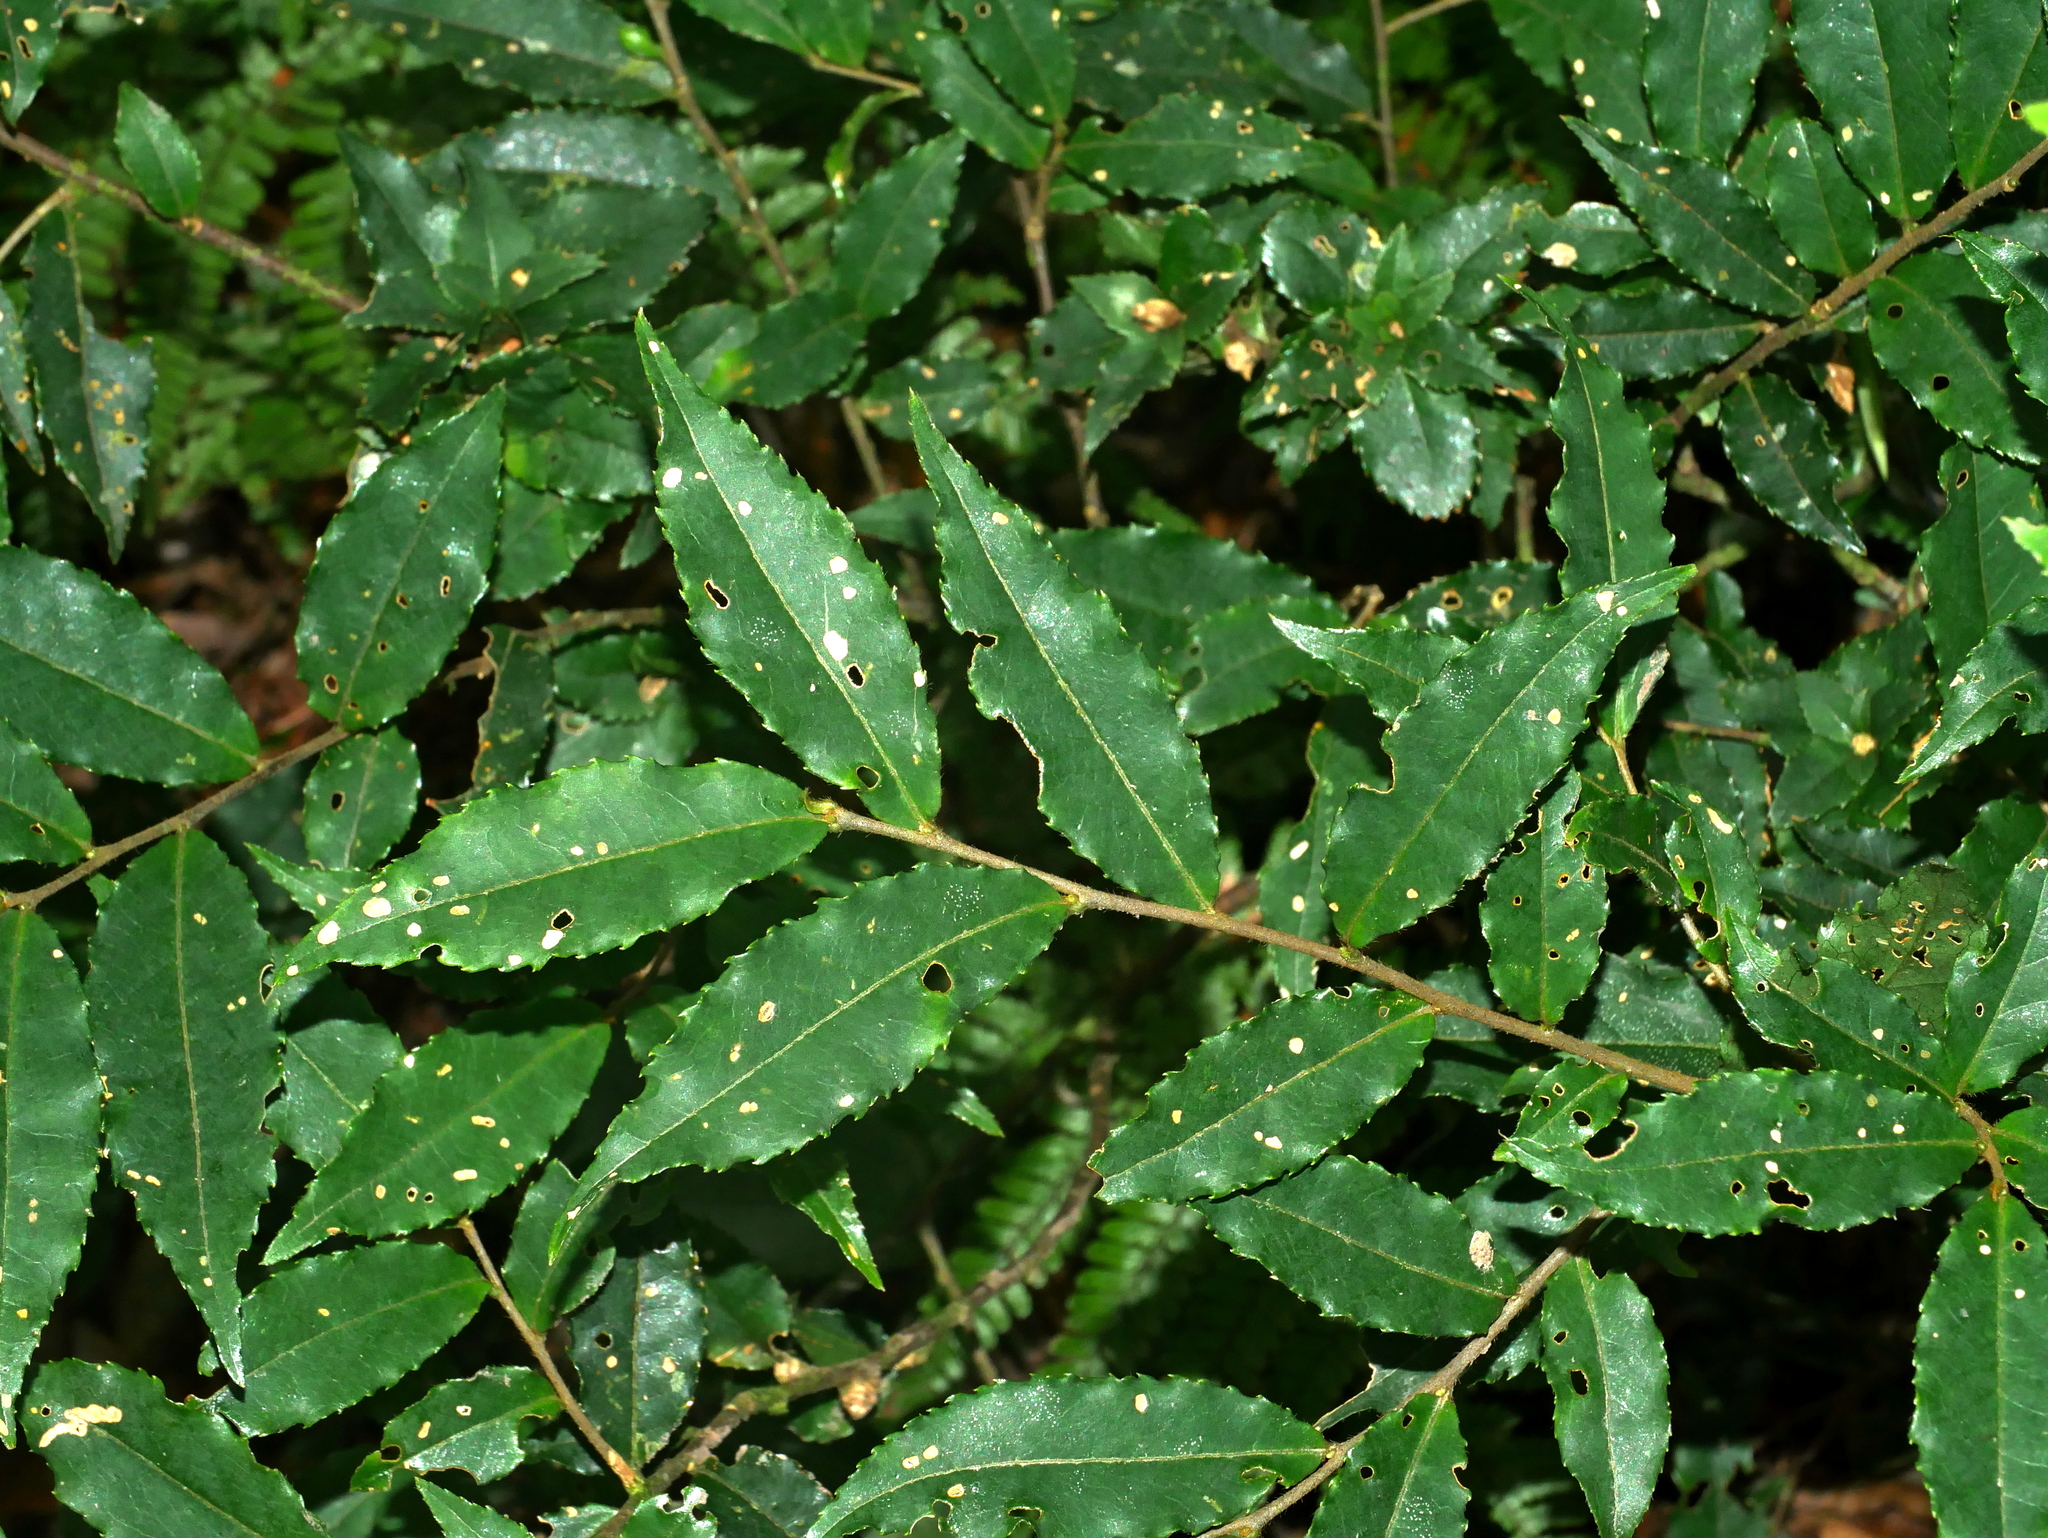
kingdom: Plantae
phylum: Tracheophyta
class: Magnoliopsida
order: Ericales
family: Symplocaceae
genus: Symplocos
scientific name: Symplocos lancifolia
